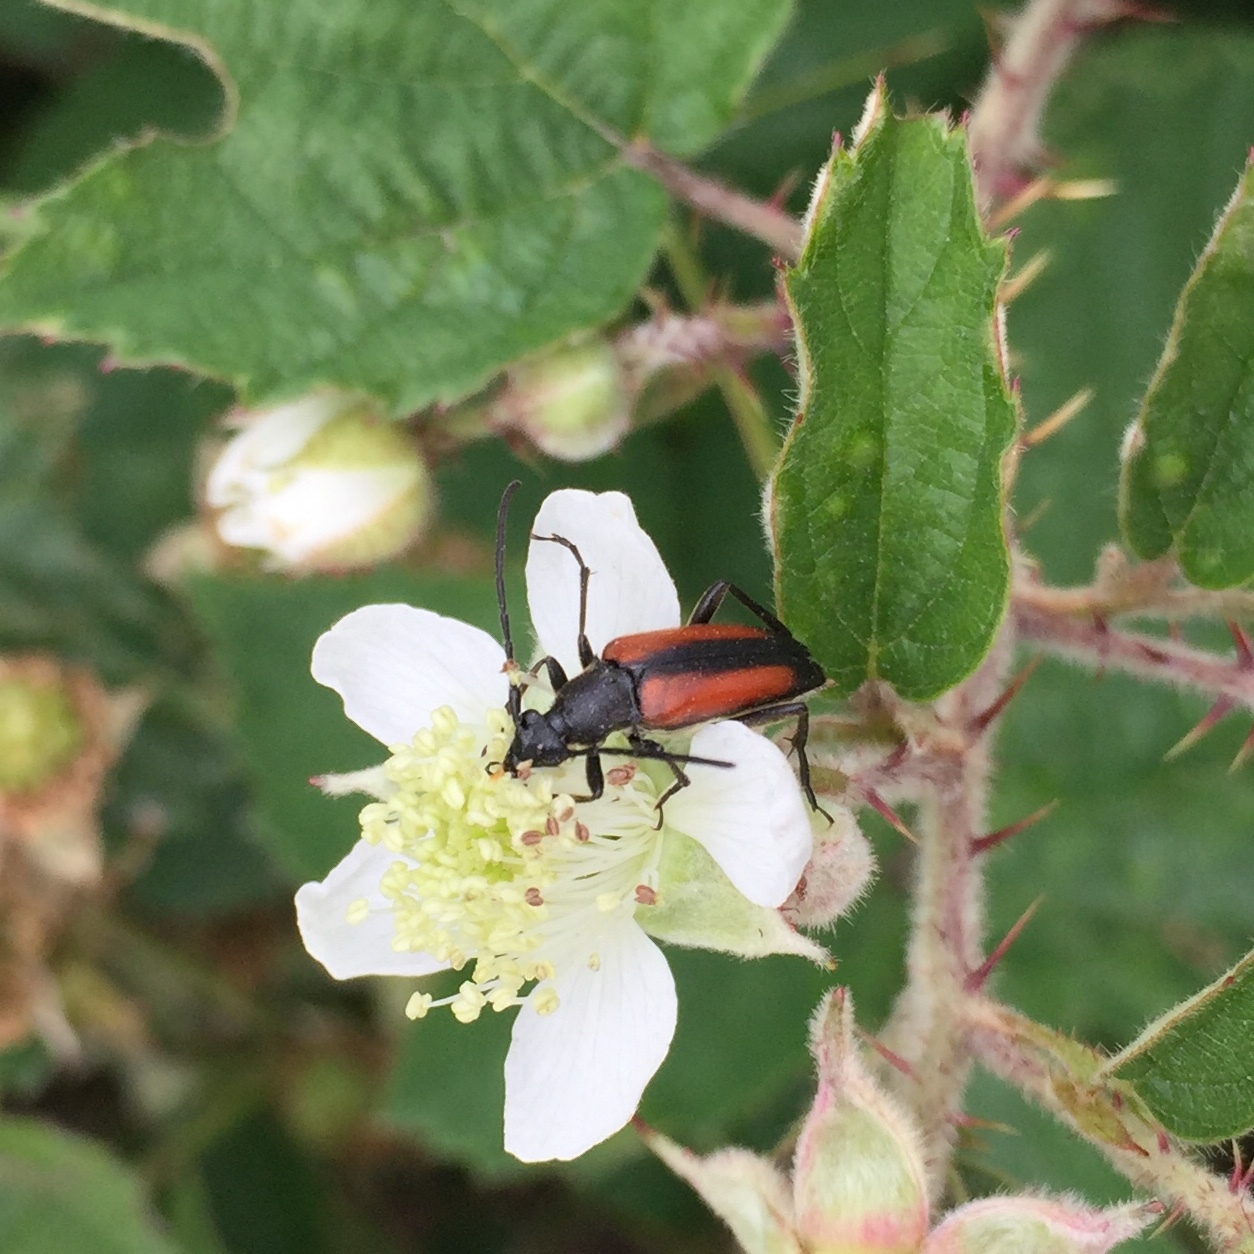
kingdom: Animalia
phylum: Arthropoda
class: Insecta
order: Coleoptera
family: Cerambycidae
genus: Stenurella
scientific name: Stenurella melanura
